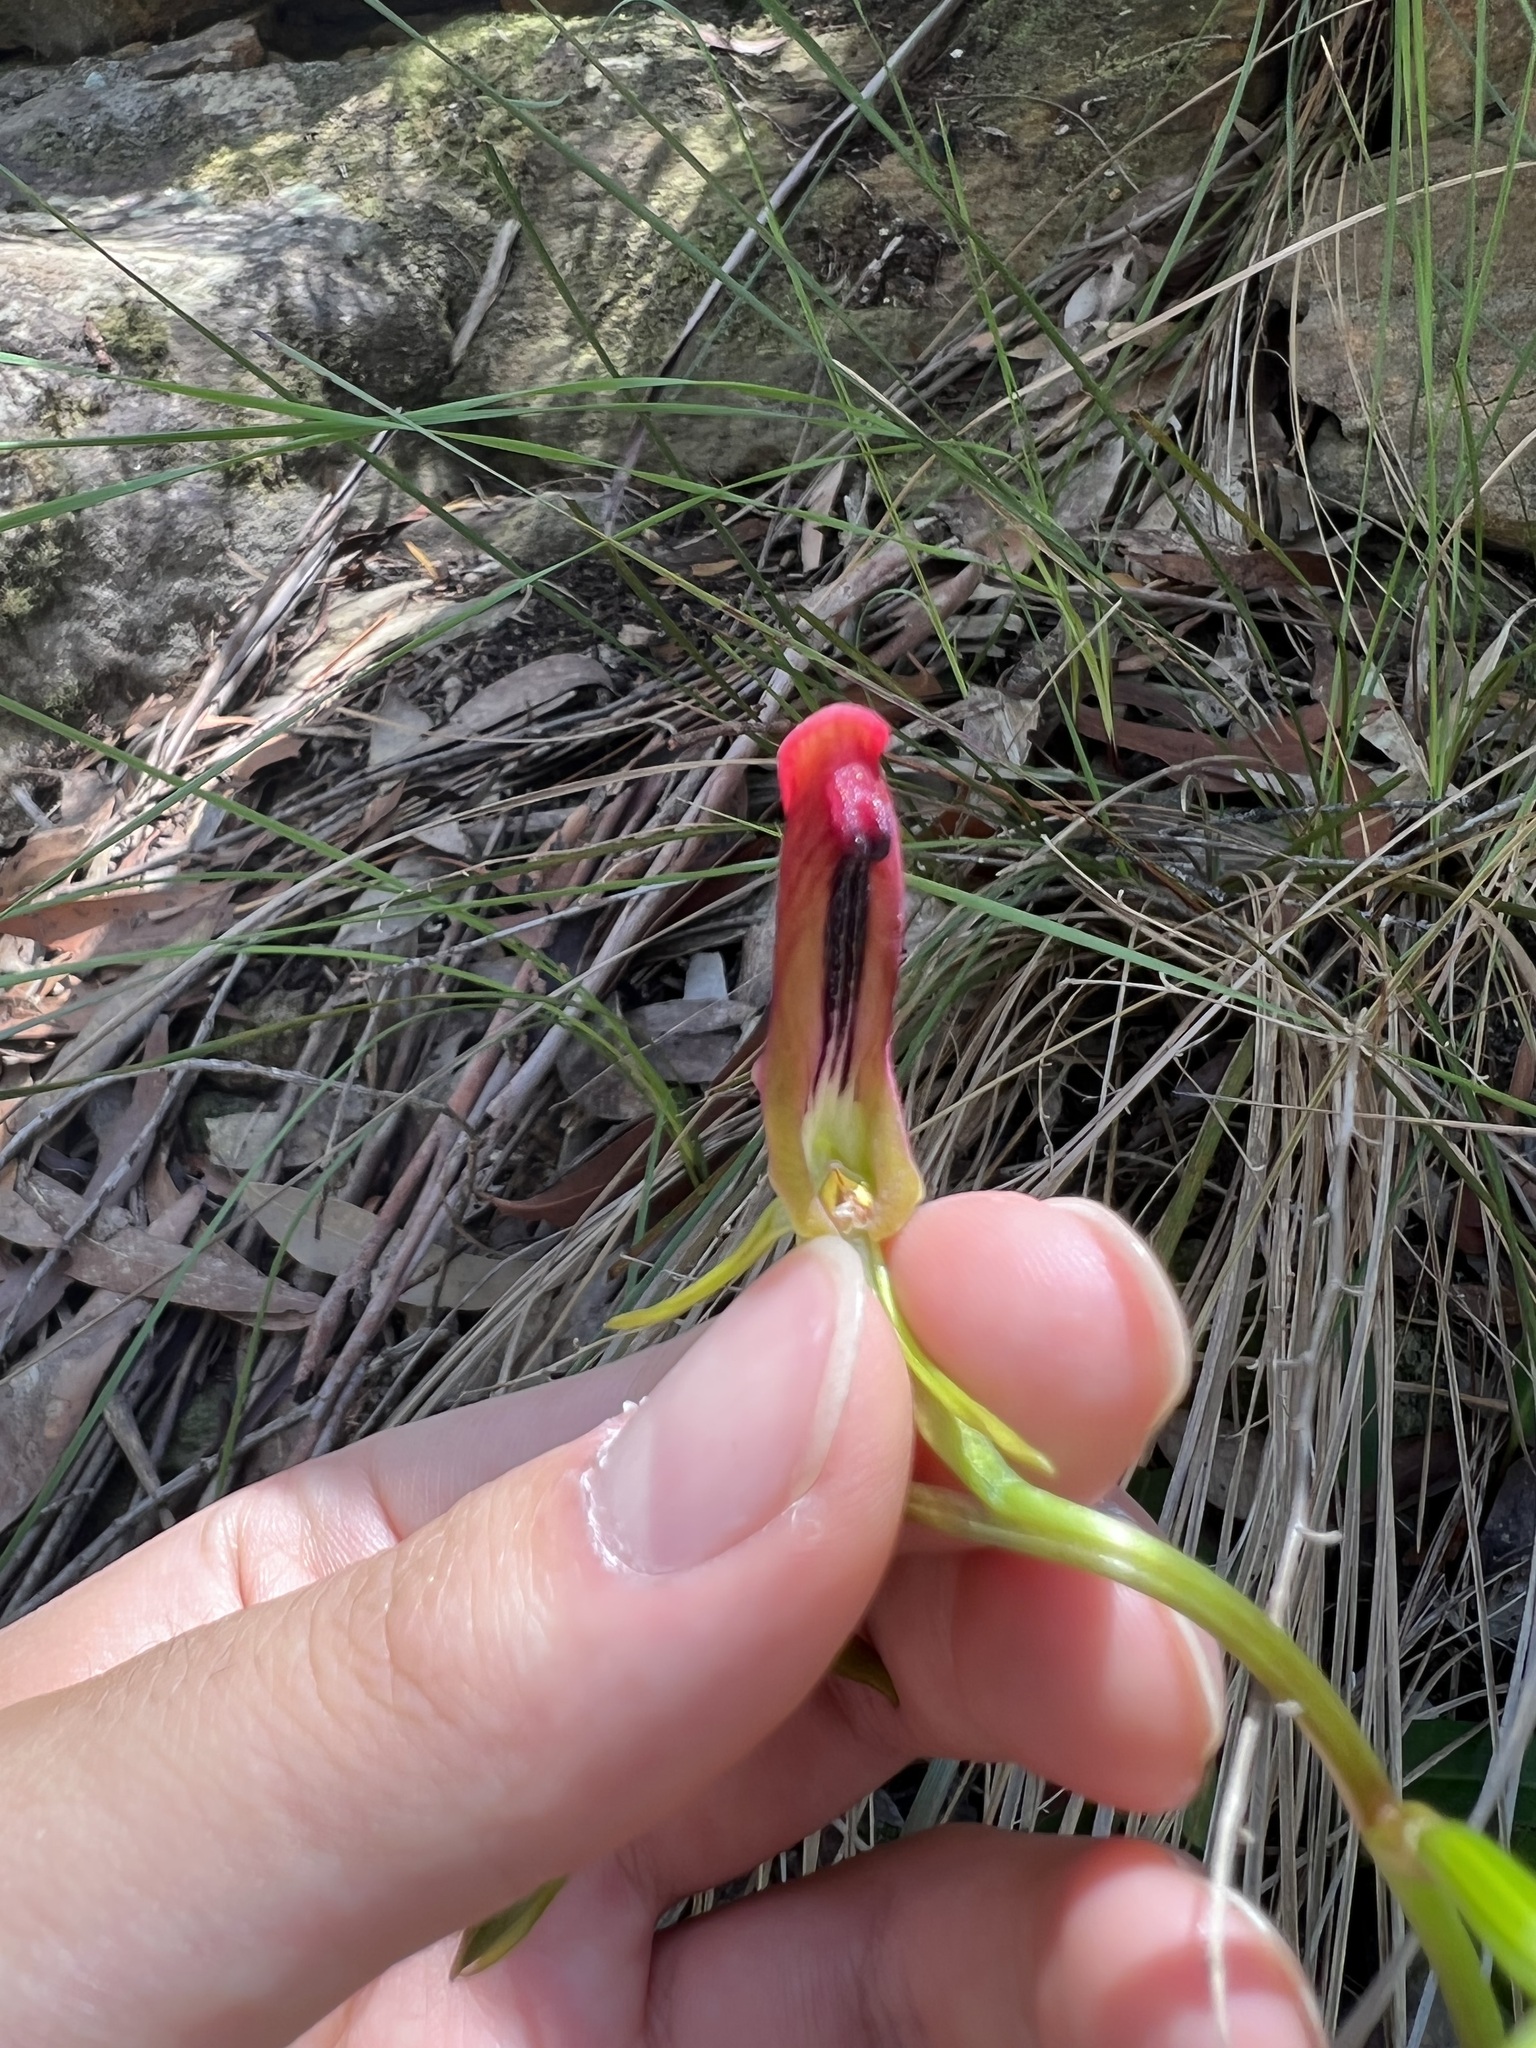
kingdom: Plantae
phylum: Tracheophyta
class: Liliopsida
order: Asparagales
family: Orchidaceae
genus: Cryptostylis
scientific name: Cryptostylis subulata
